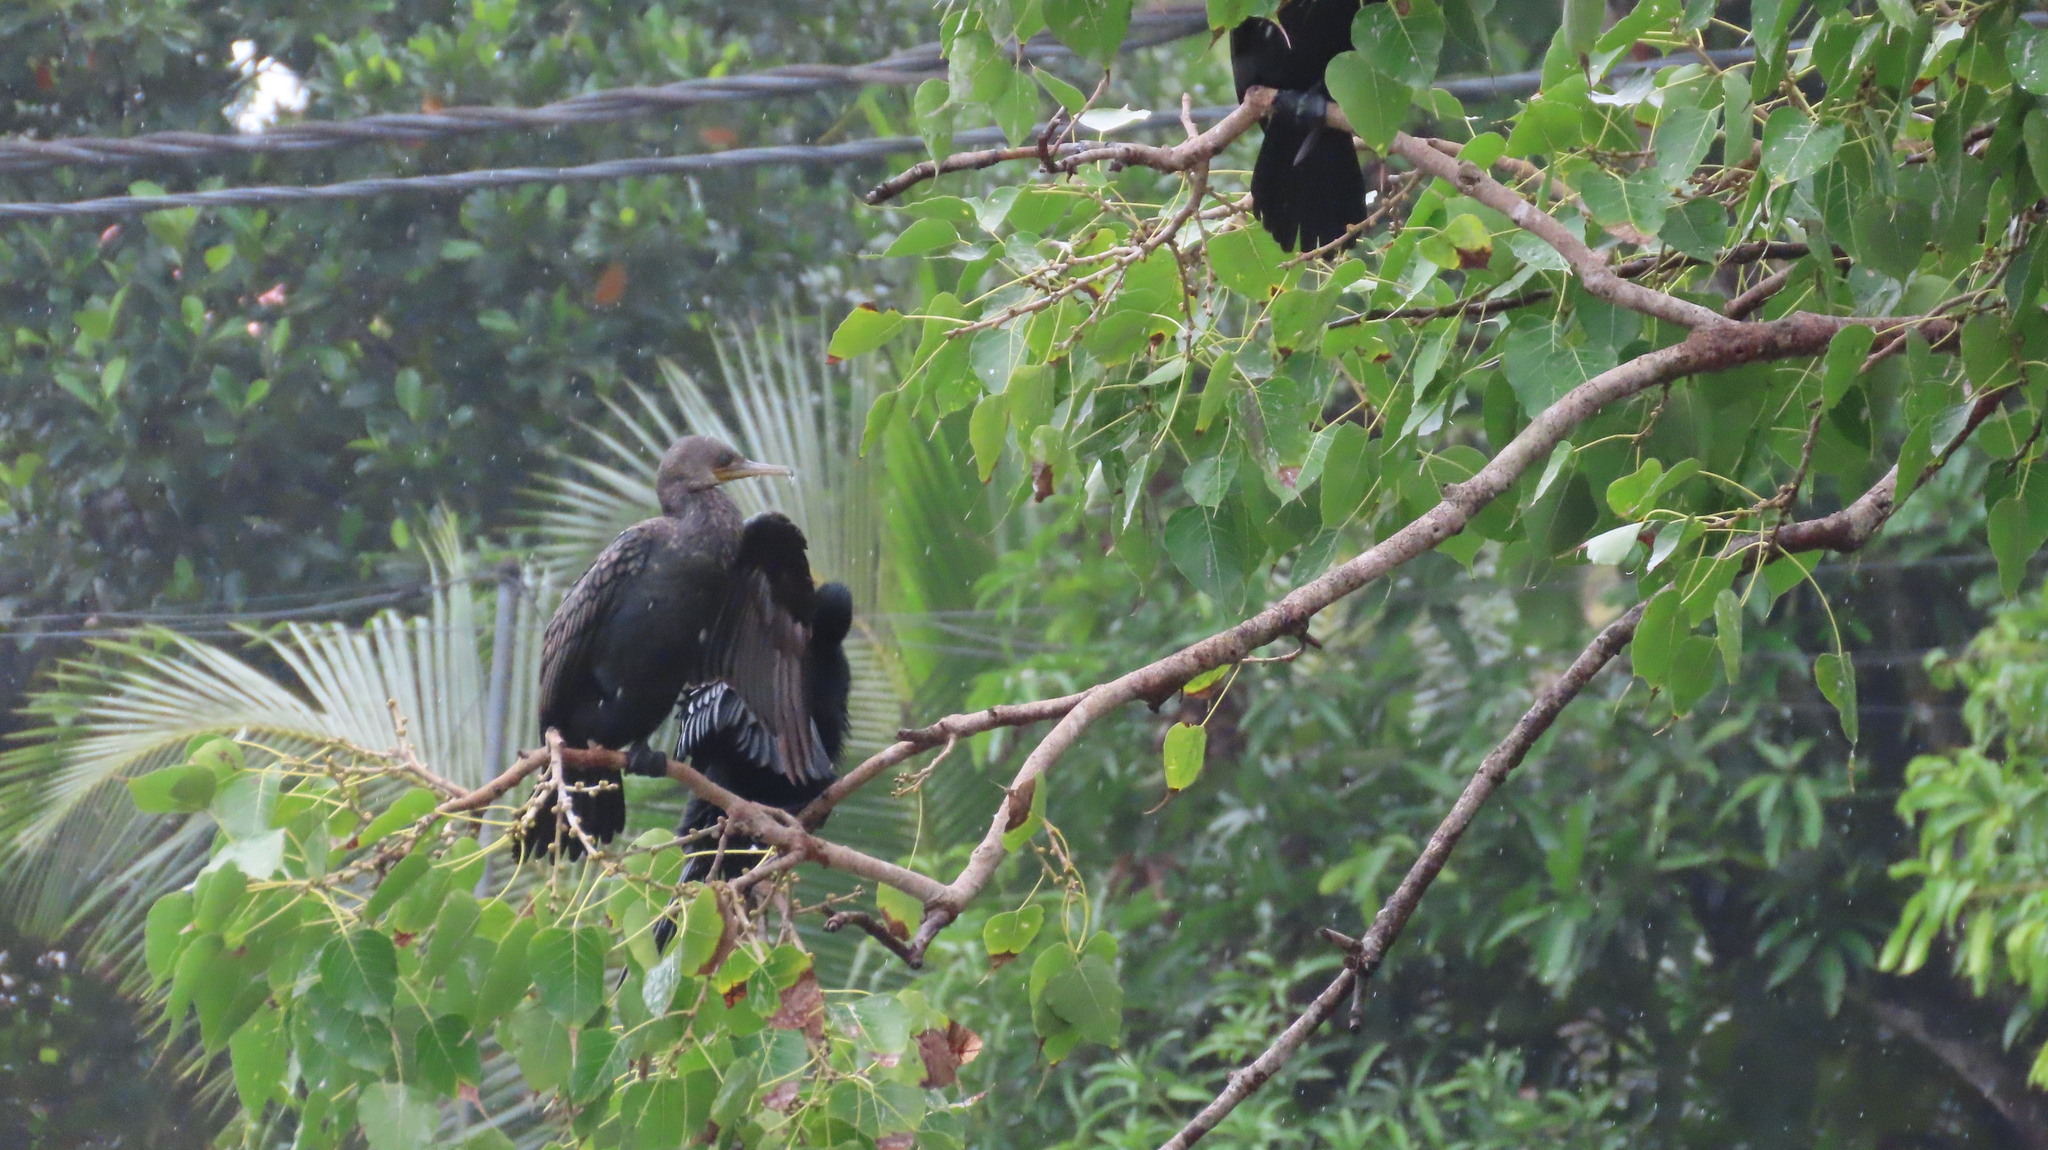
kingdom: Animalia
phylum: Chordata
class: Aves
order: Suliformes
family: Phalacrocoracidae
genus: Phalacrocorax
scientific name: Phalacrocorax fuscicollis
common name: Indian cormorant
